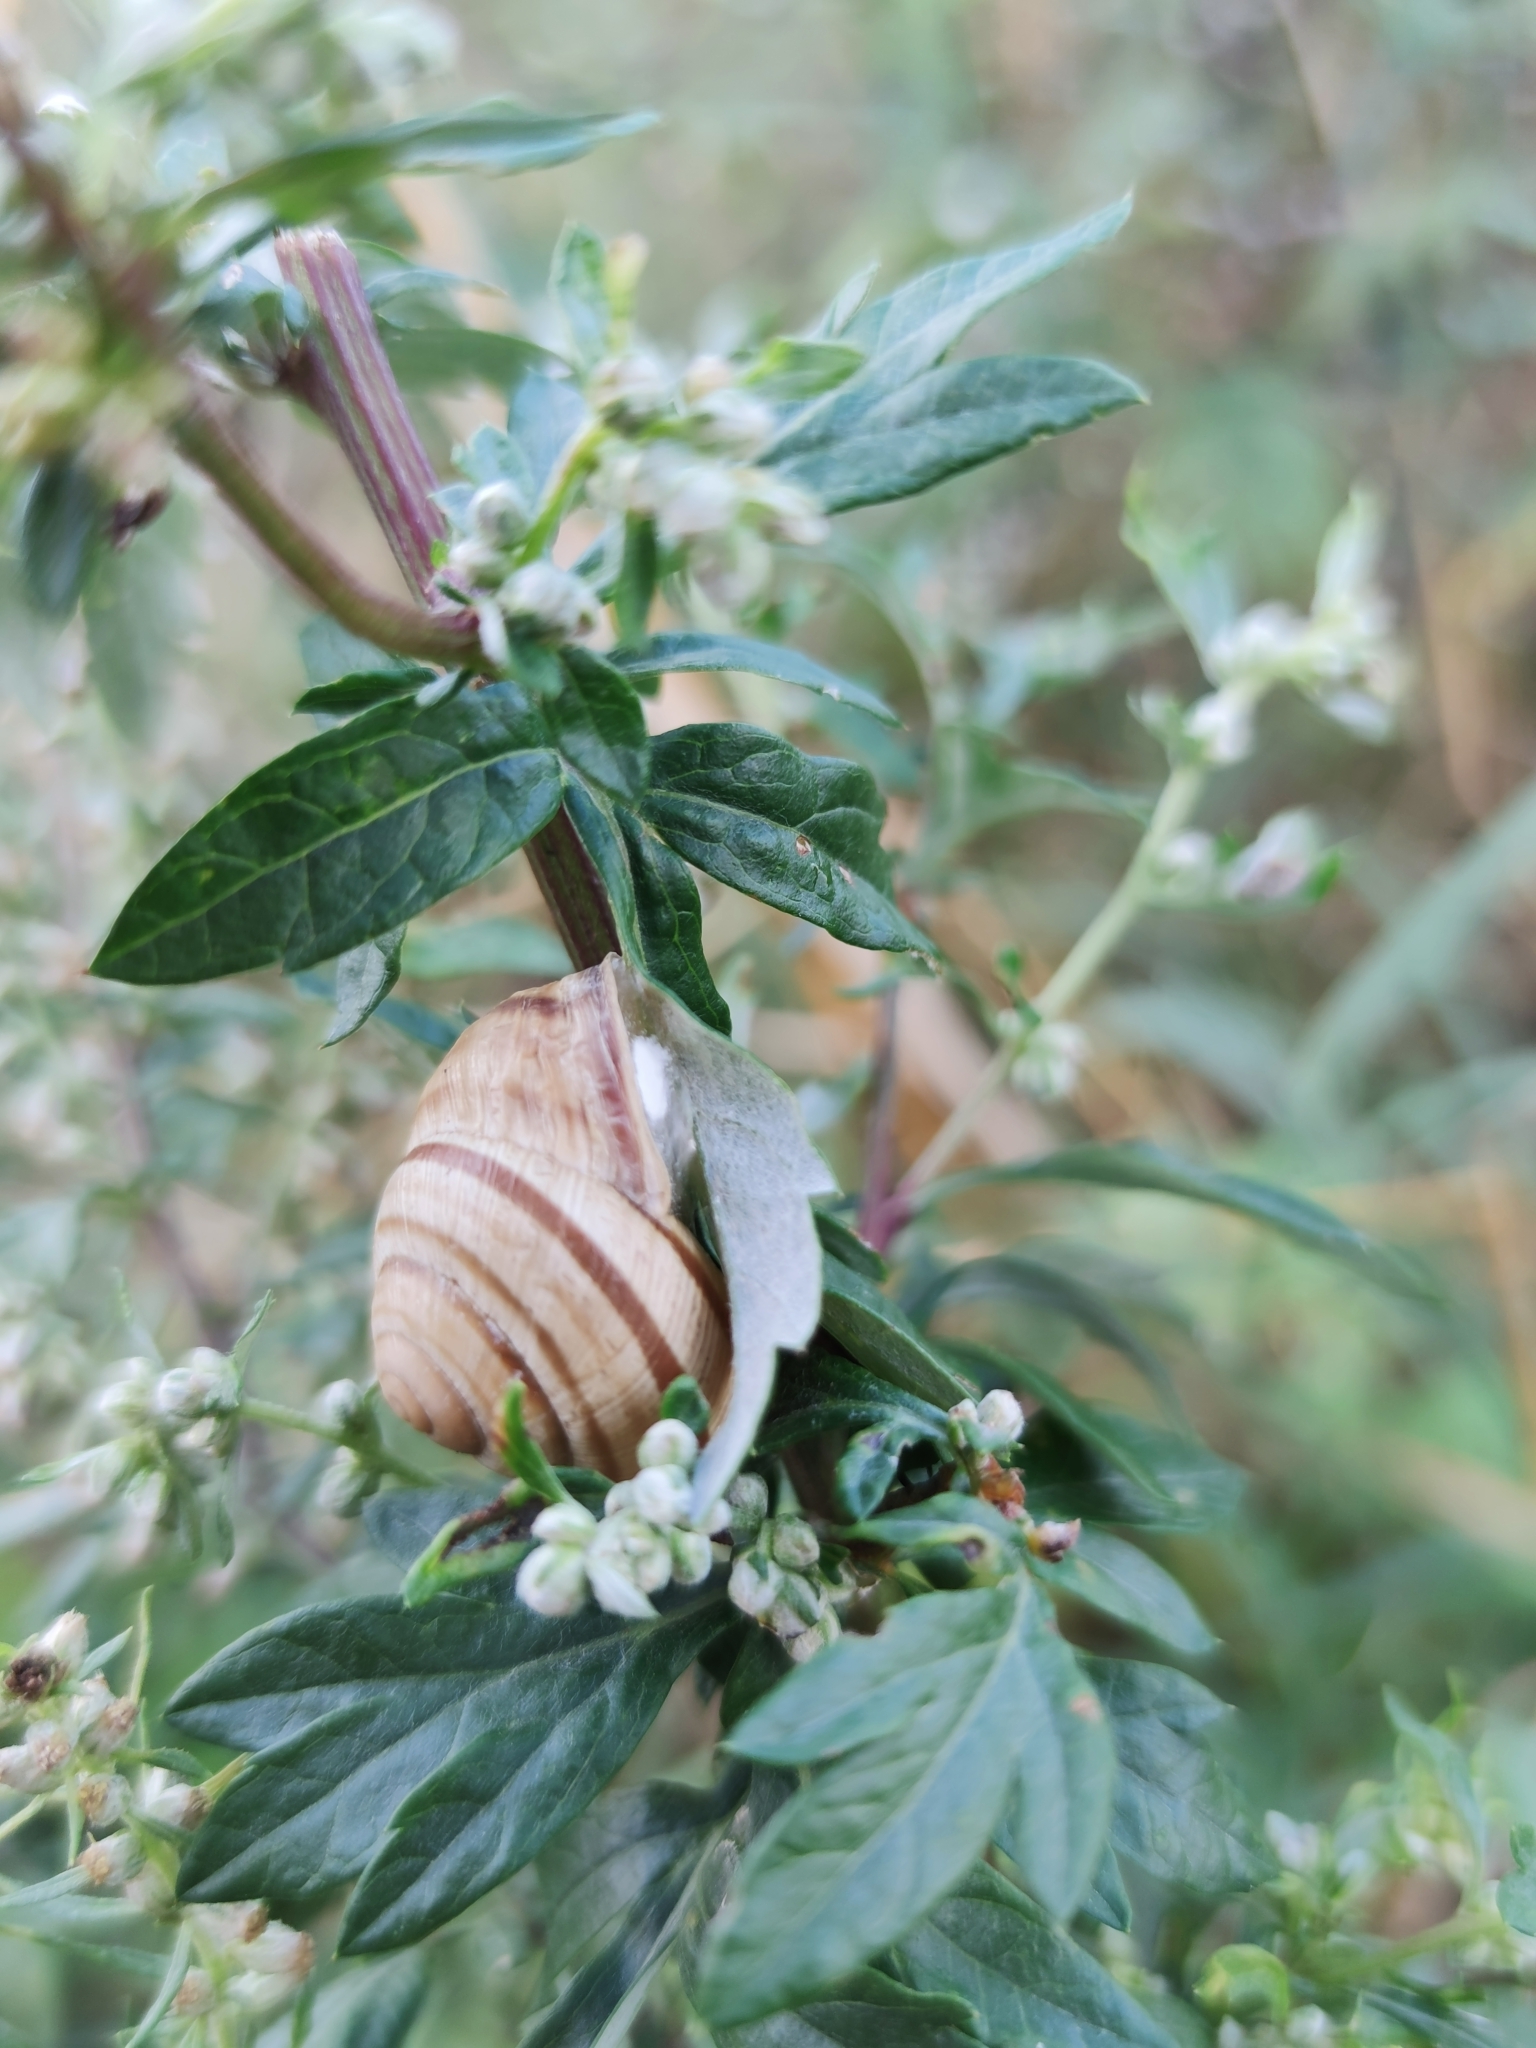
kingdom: Animalia
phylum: Mollusca
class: Gastropoda
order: Stylommatophora
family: Helicidae
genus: Caucasotachea
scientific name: Caucasotachea vindobonensis
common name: European helicid land snail
